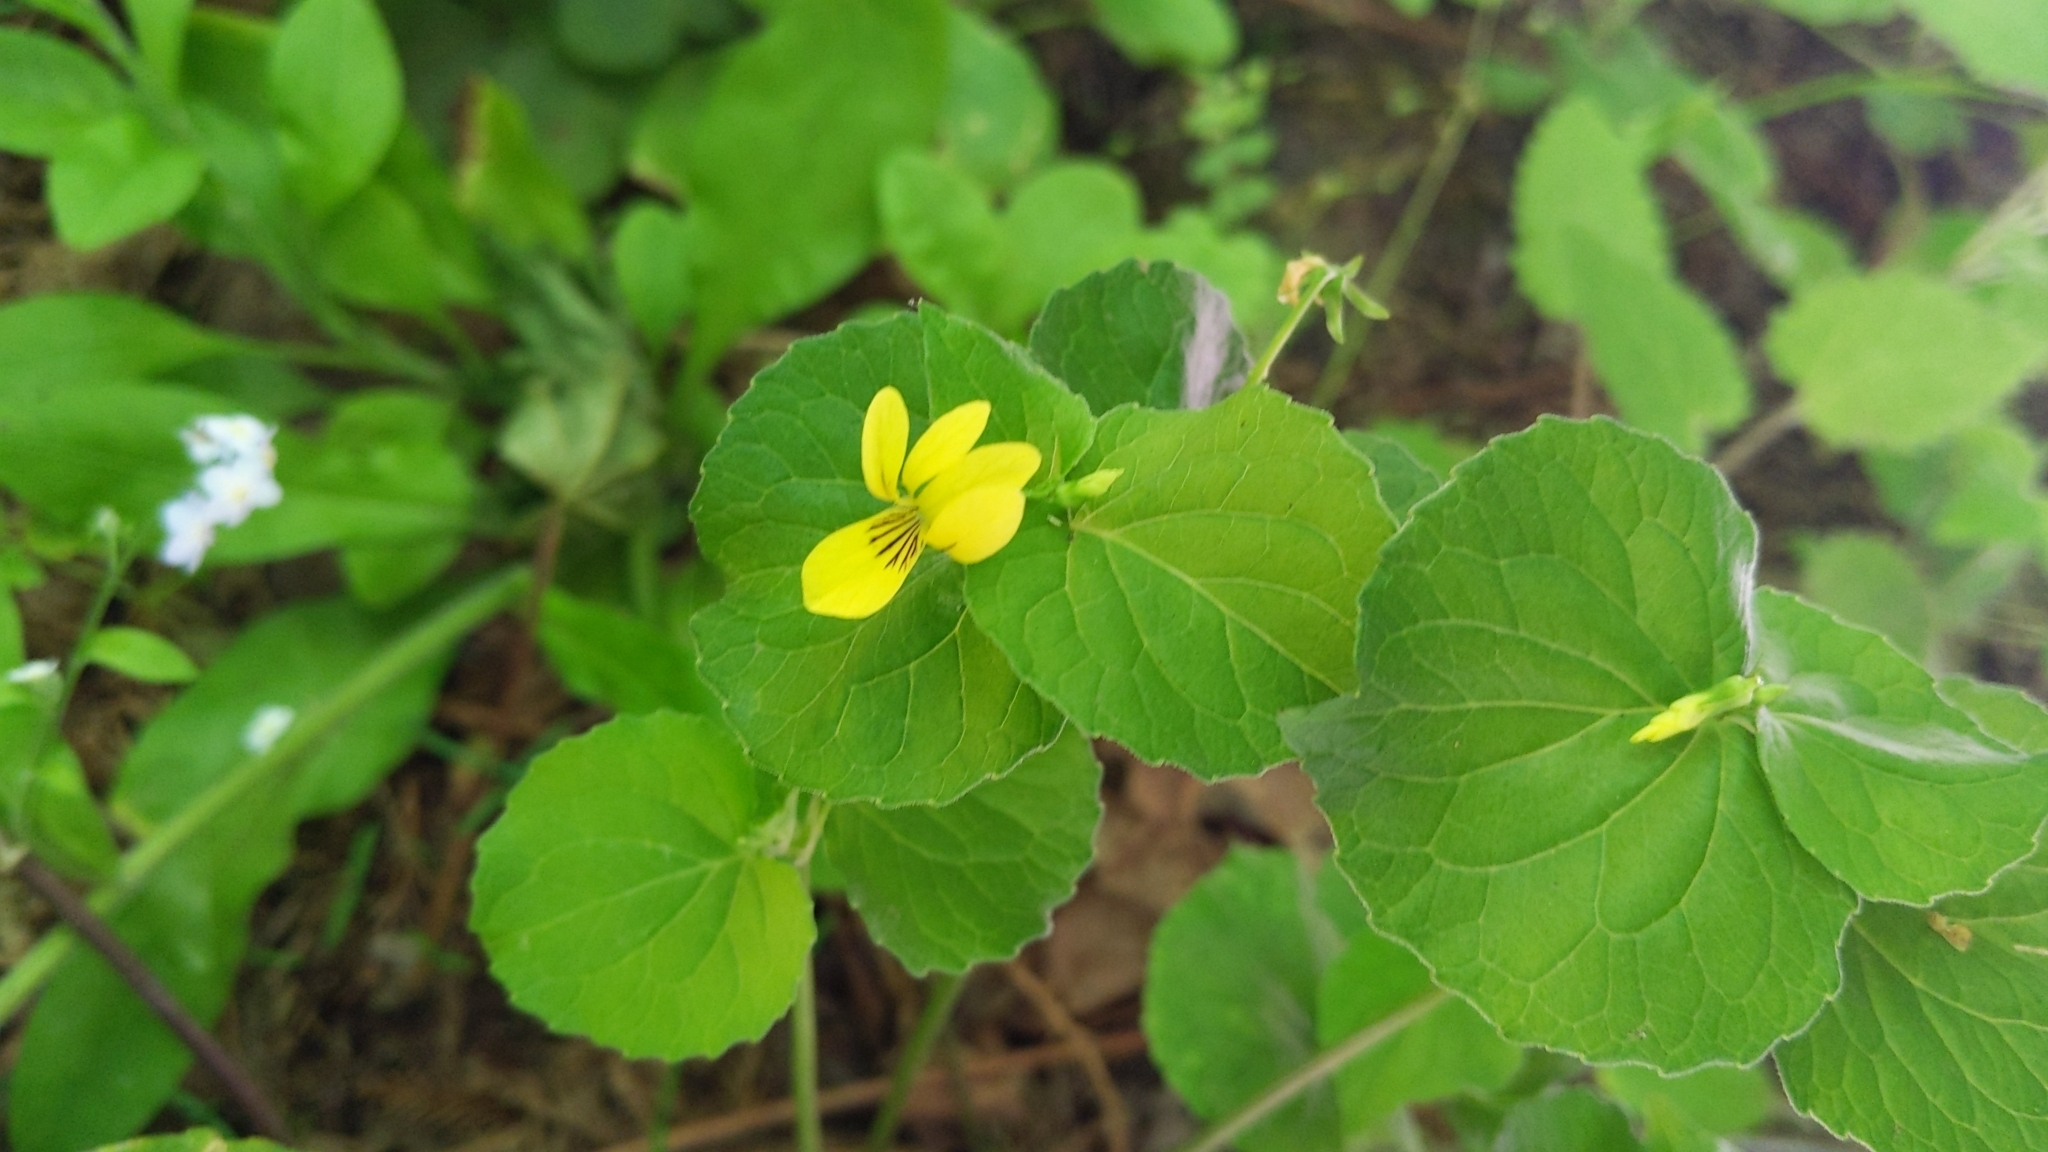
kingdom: Plantae
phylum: Tracheophyta
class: Magnoliopsida
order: Malpighiales
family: Violaceae
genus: Viola
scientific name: Viola glabella
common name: Stream violet
